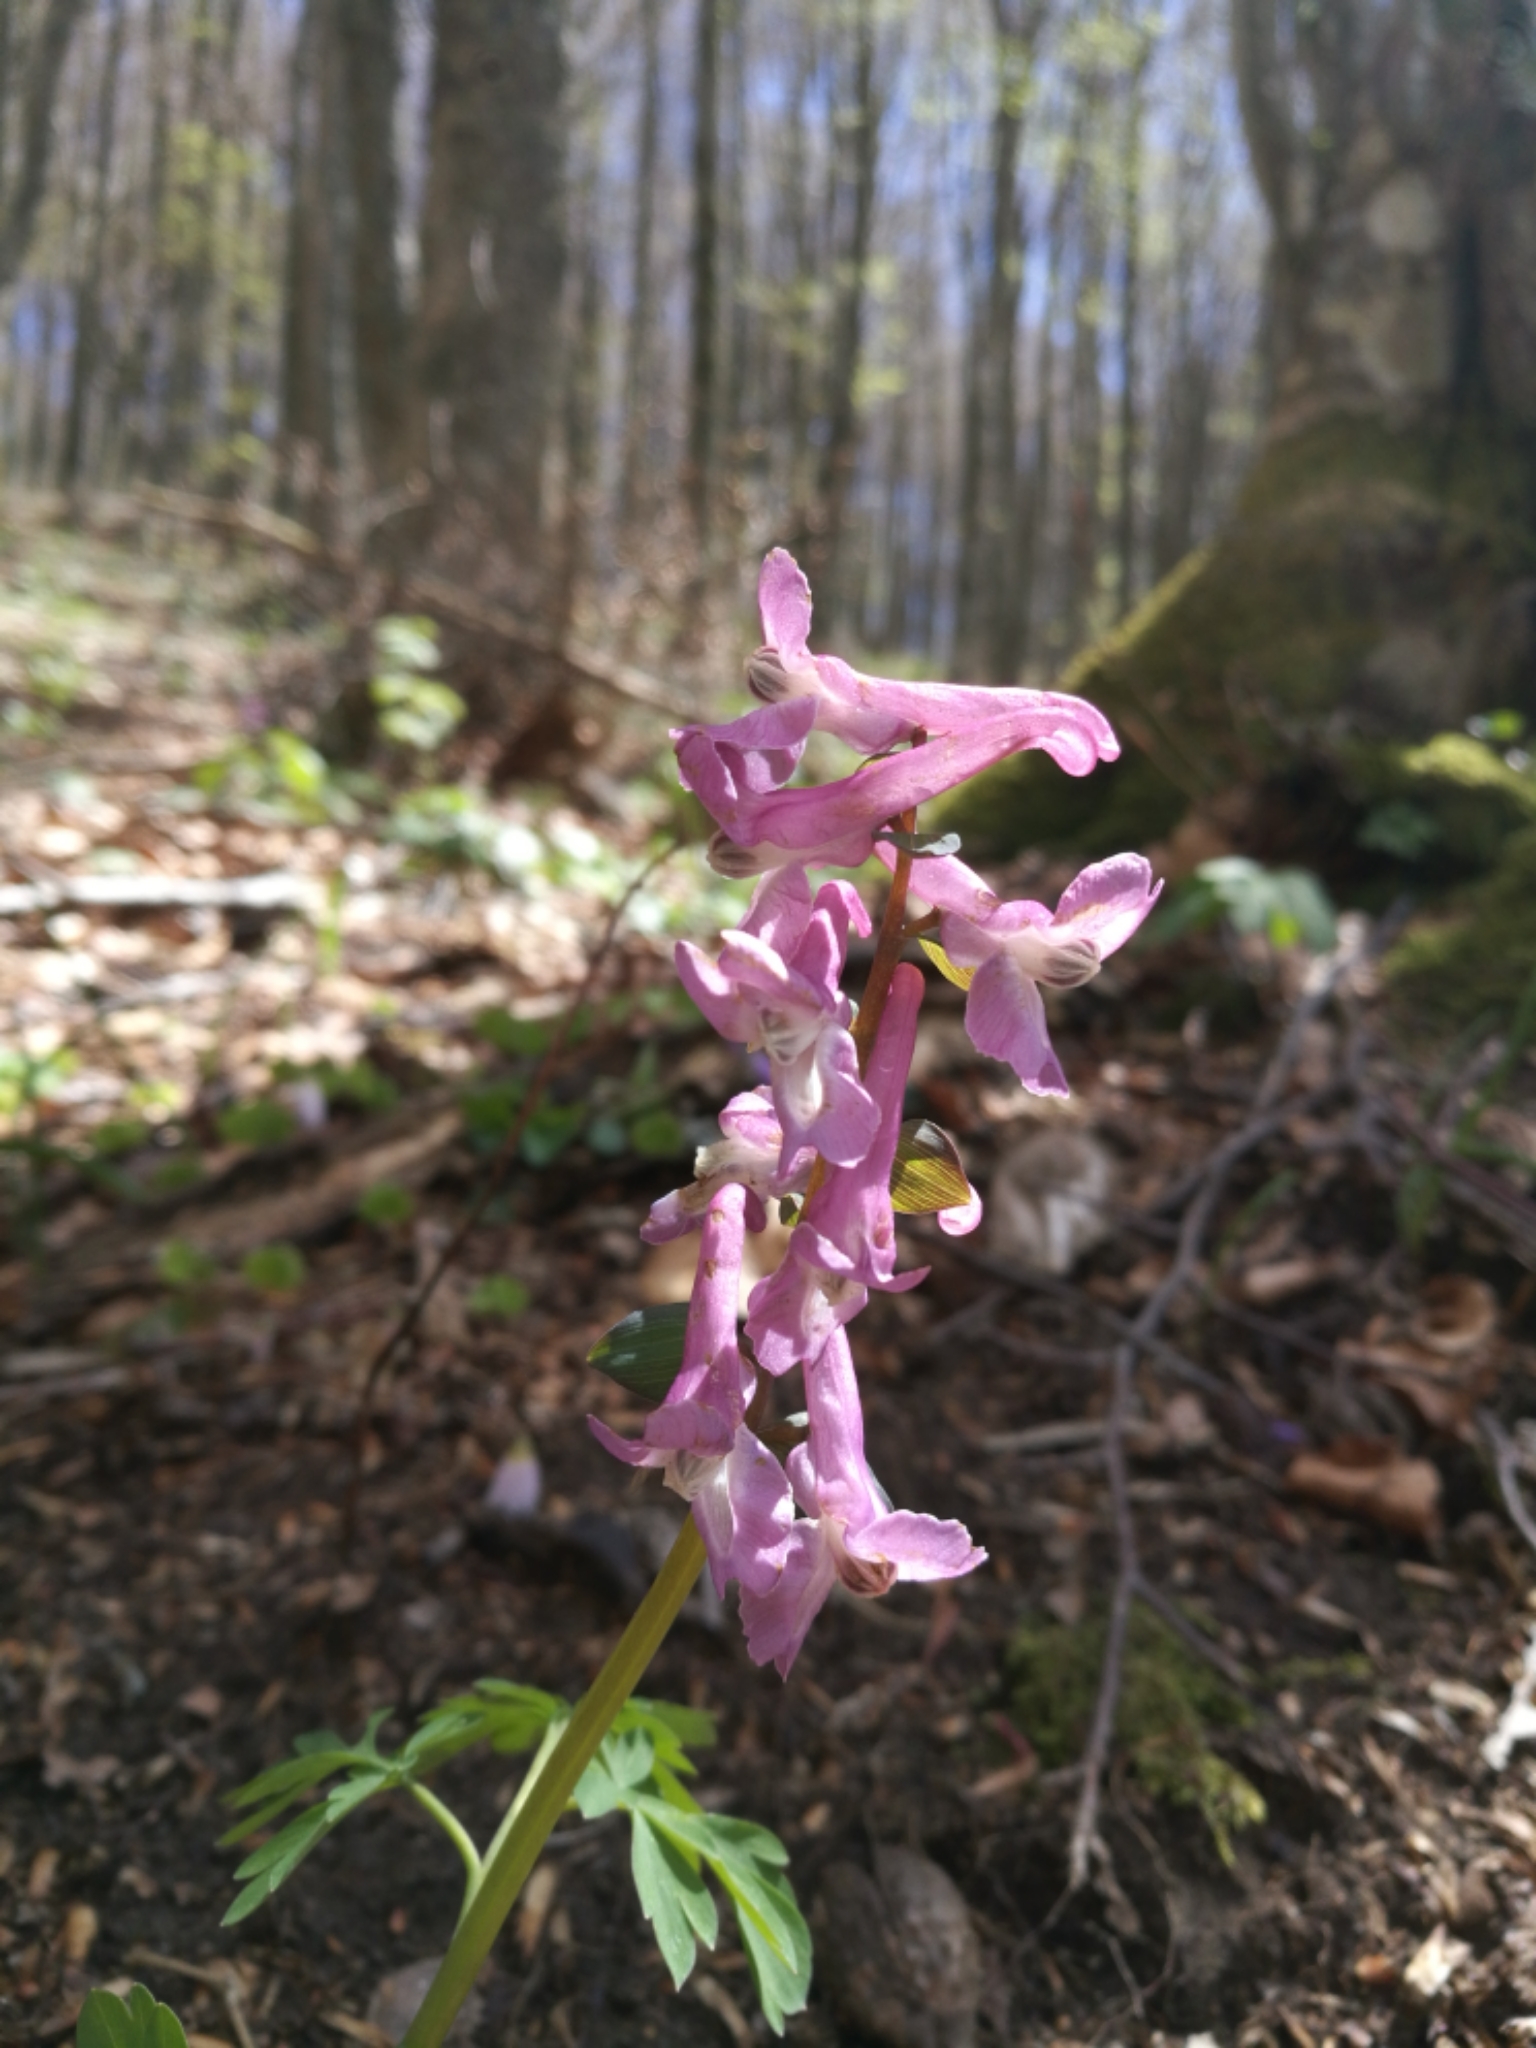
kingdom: Plantae
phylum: Tracheophyta
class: Magnoliopsida
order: Ranunculales
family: Papaveraceae
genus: Corydalis
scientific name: Corydalis cava
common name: Hollowroot
